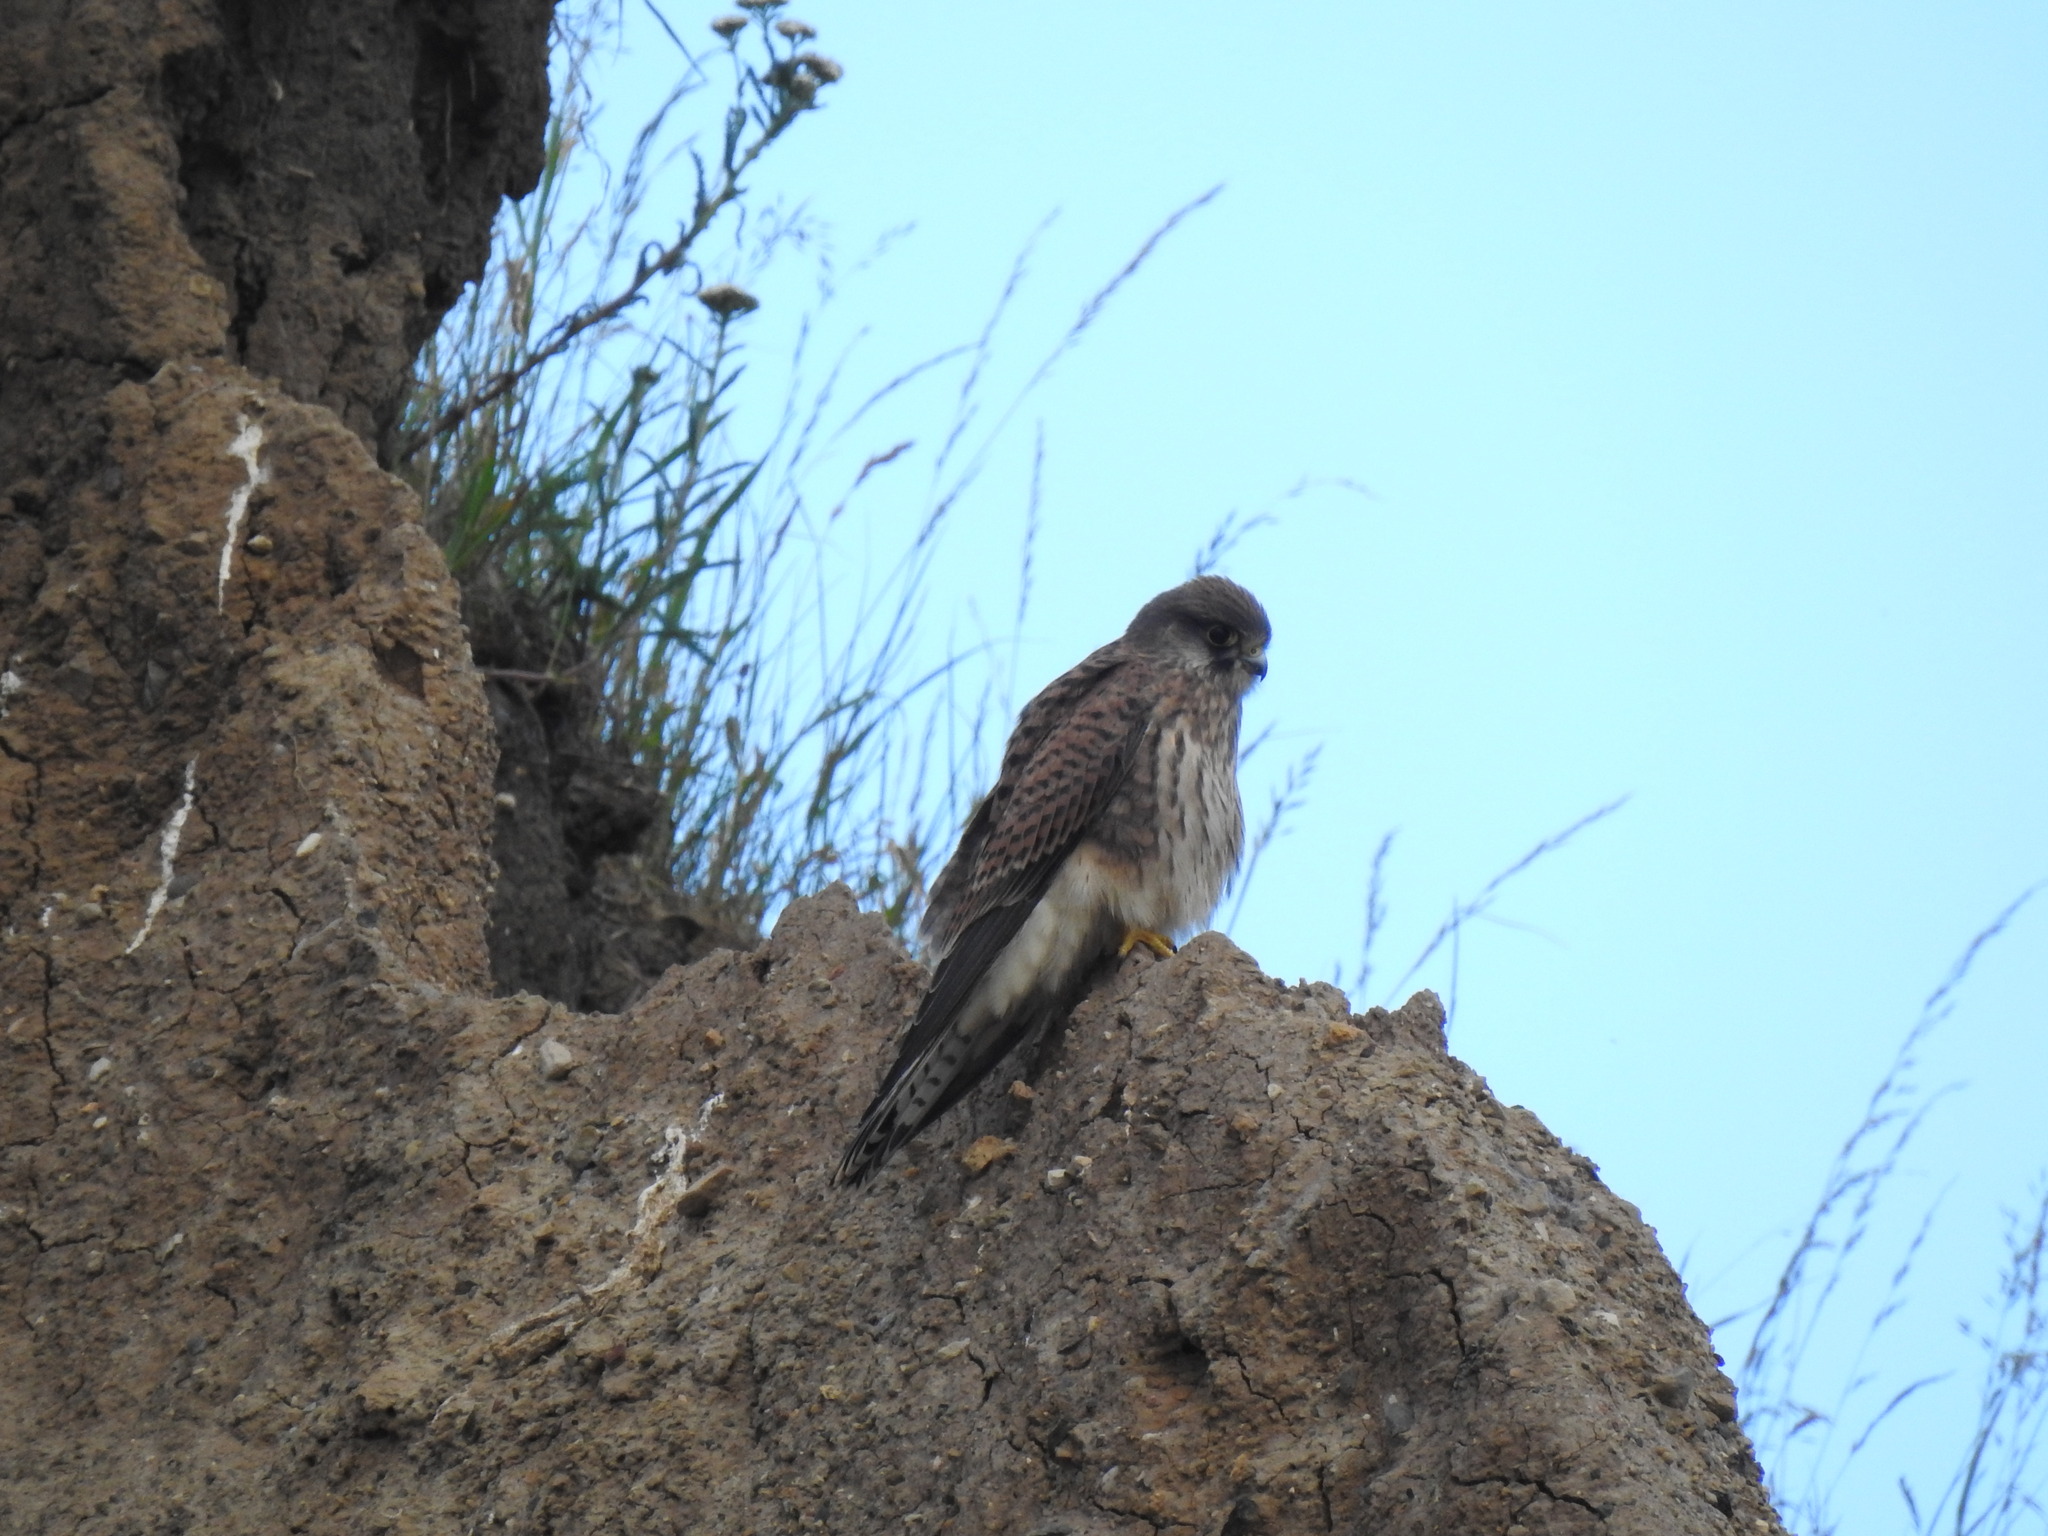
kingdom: Animalia
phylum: Chordata
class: Aves
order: Falconiformes
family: Falconidae
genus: Falco
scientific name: Falco tinnunculus
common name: Common kestrel
